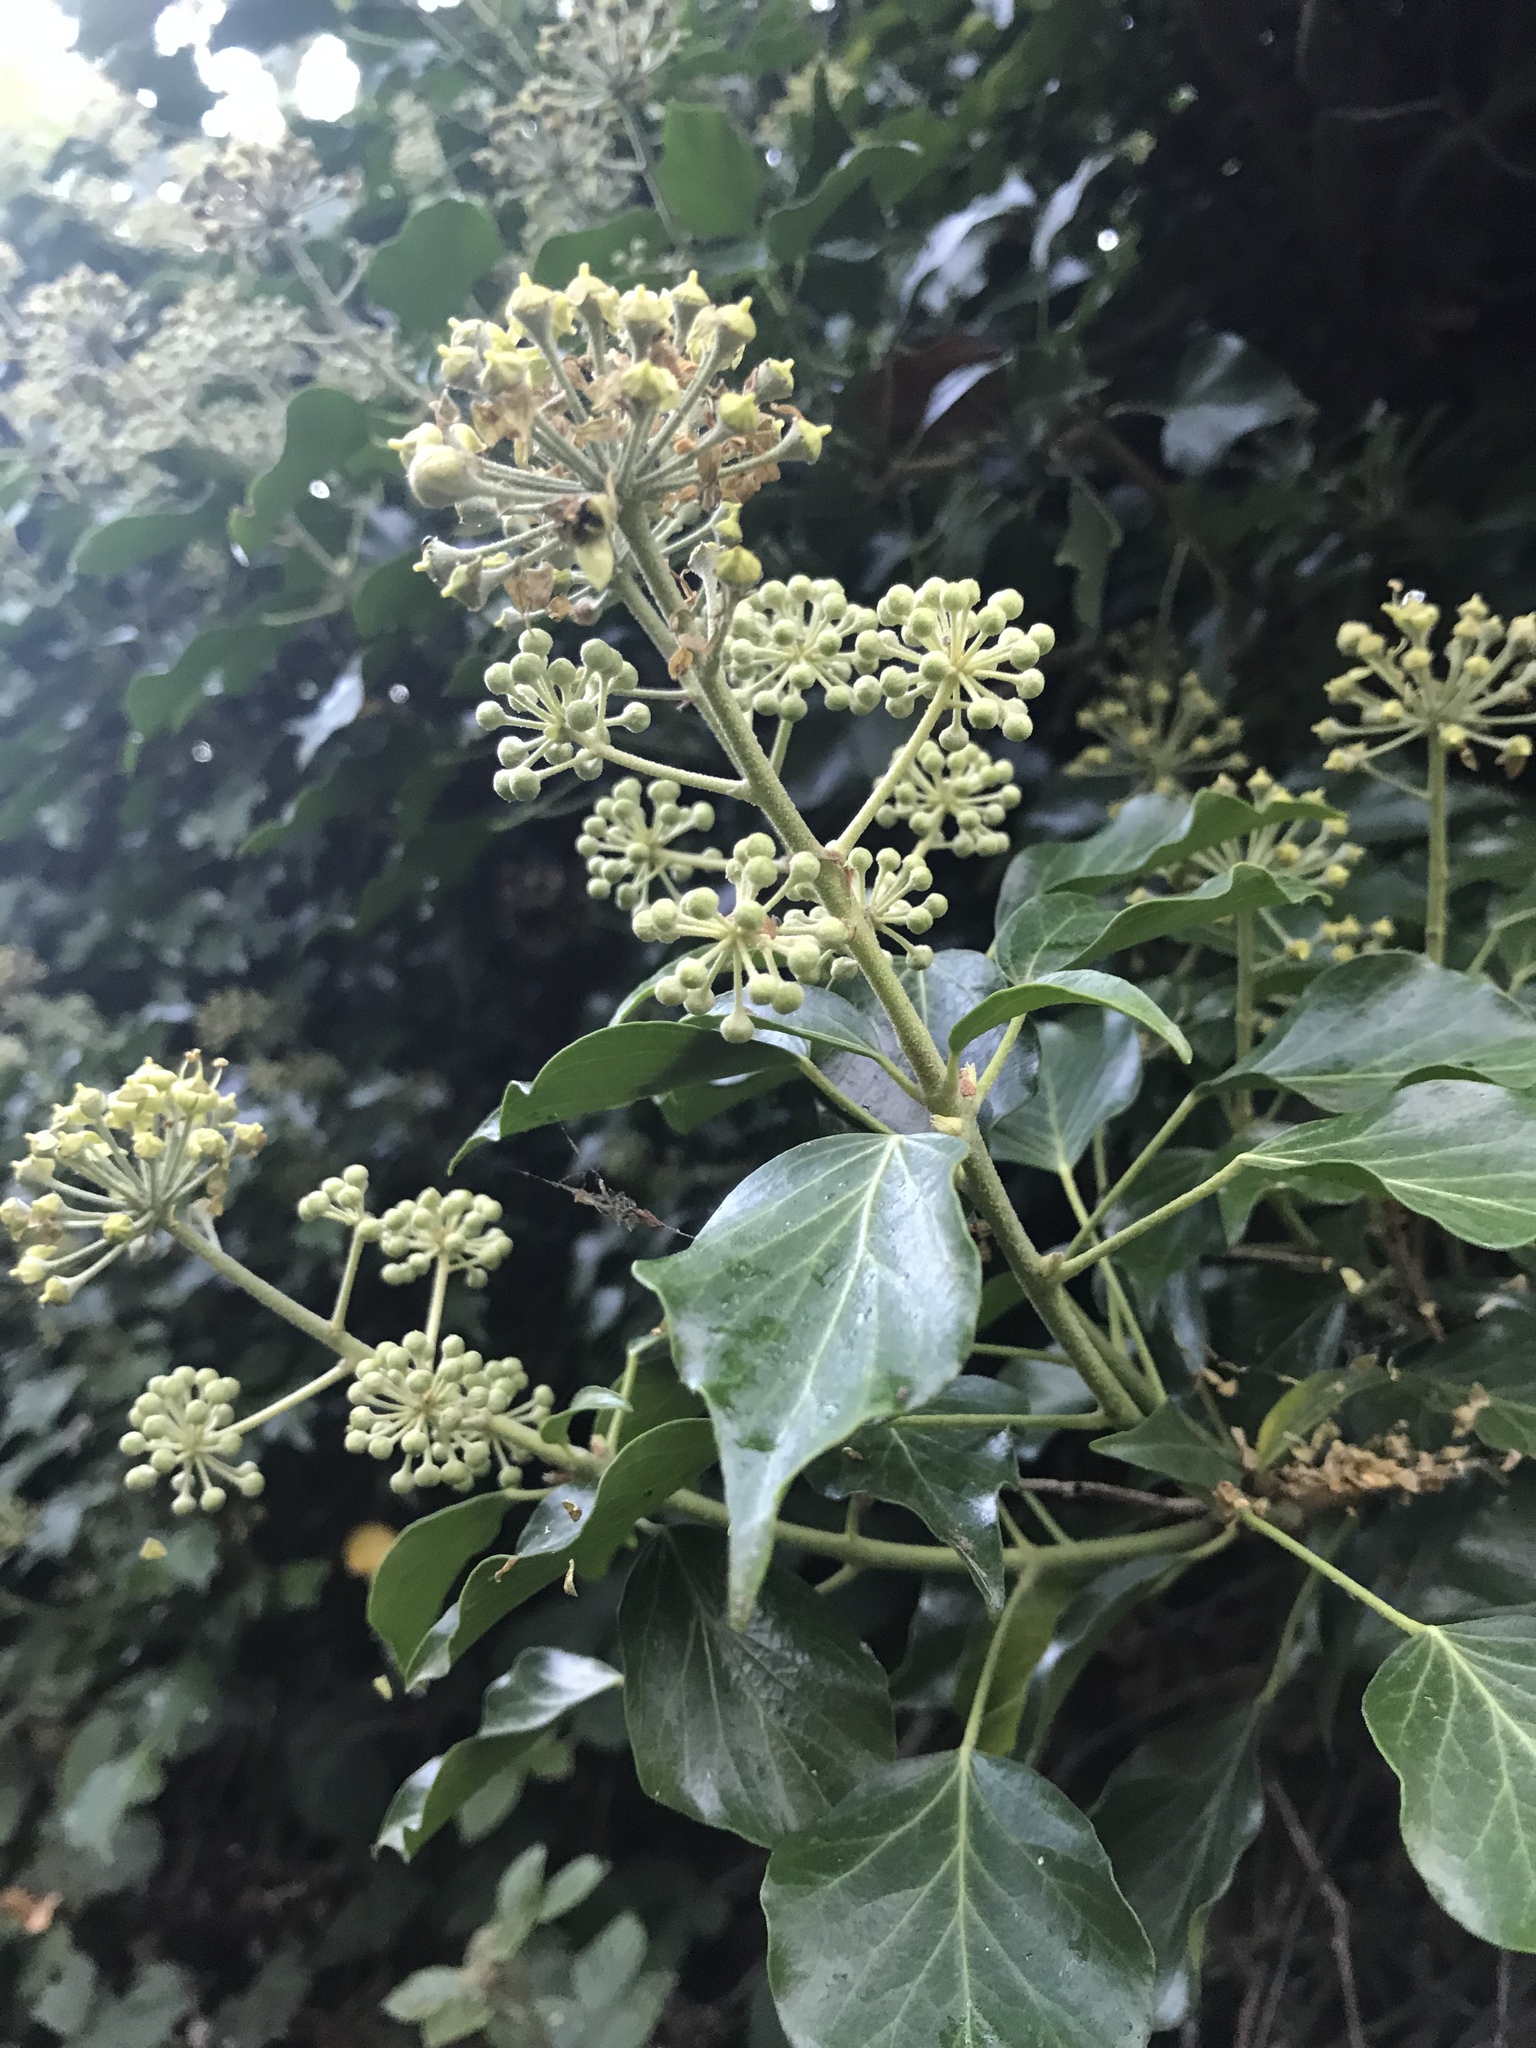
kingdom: Plantae
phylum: Tracheophyta
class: Magnoliopsida
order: Apiales
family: Araliaceae
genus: Hedera
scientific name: Hedera helix
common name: Ivy
